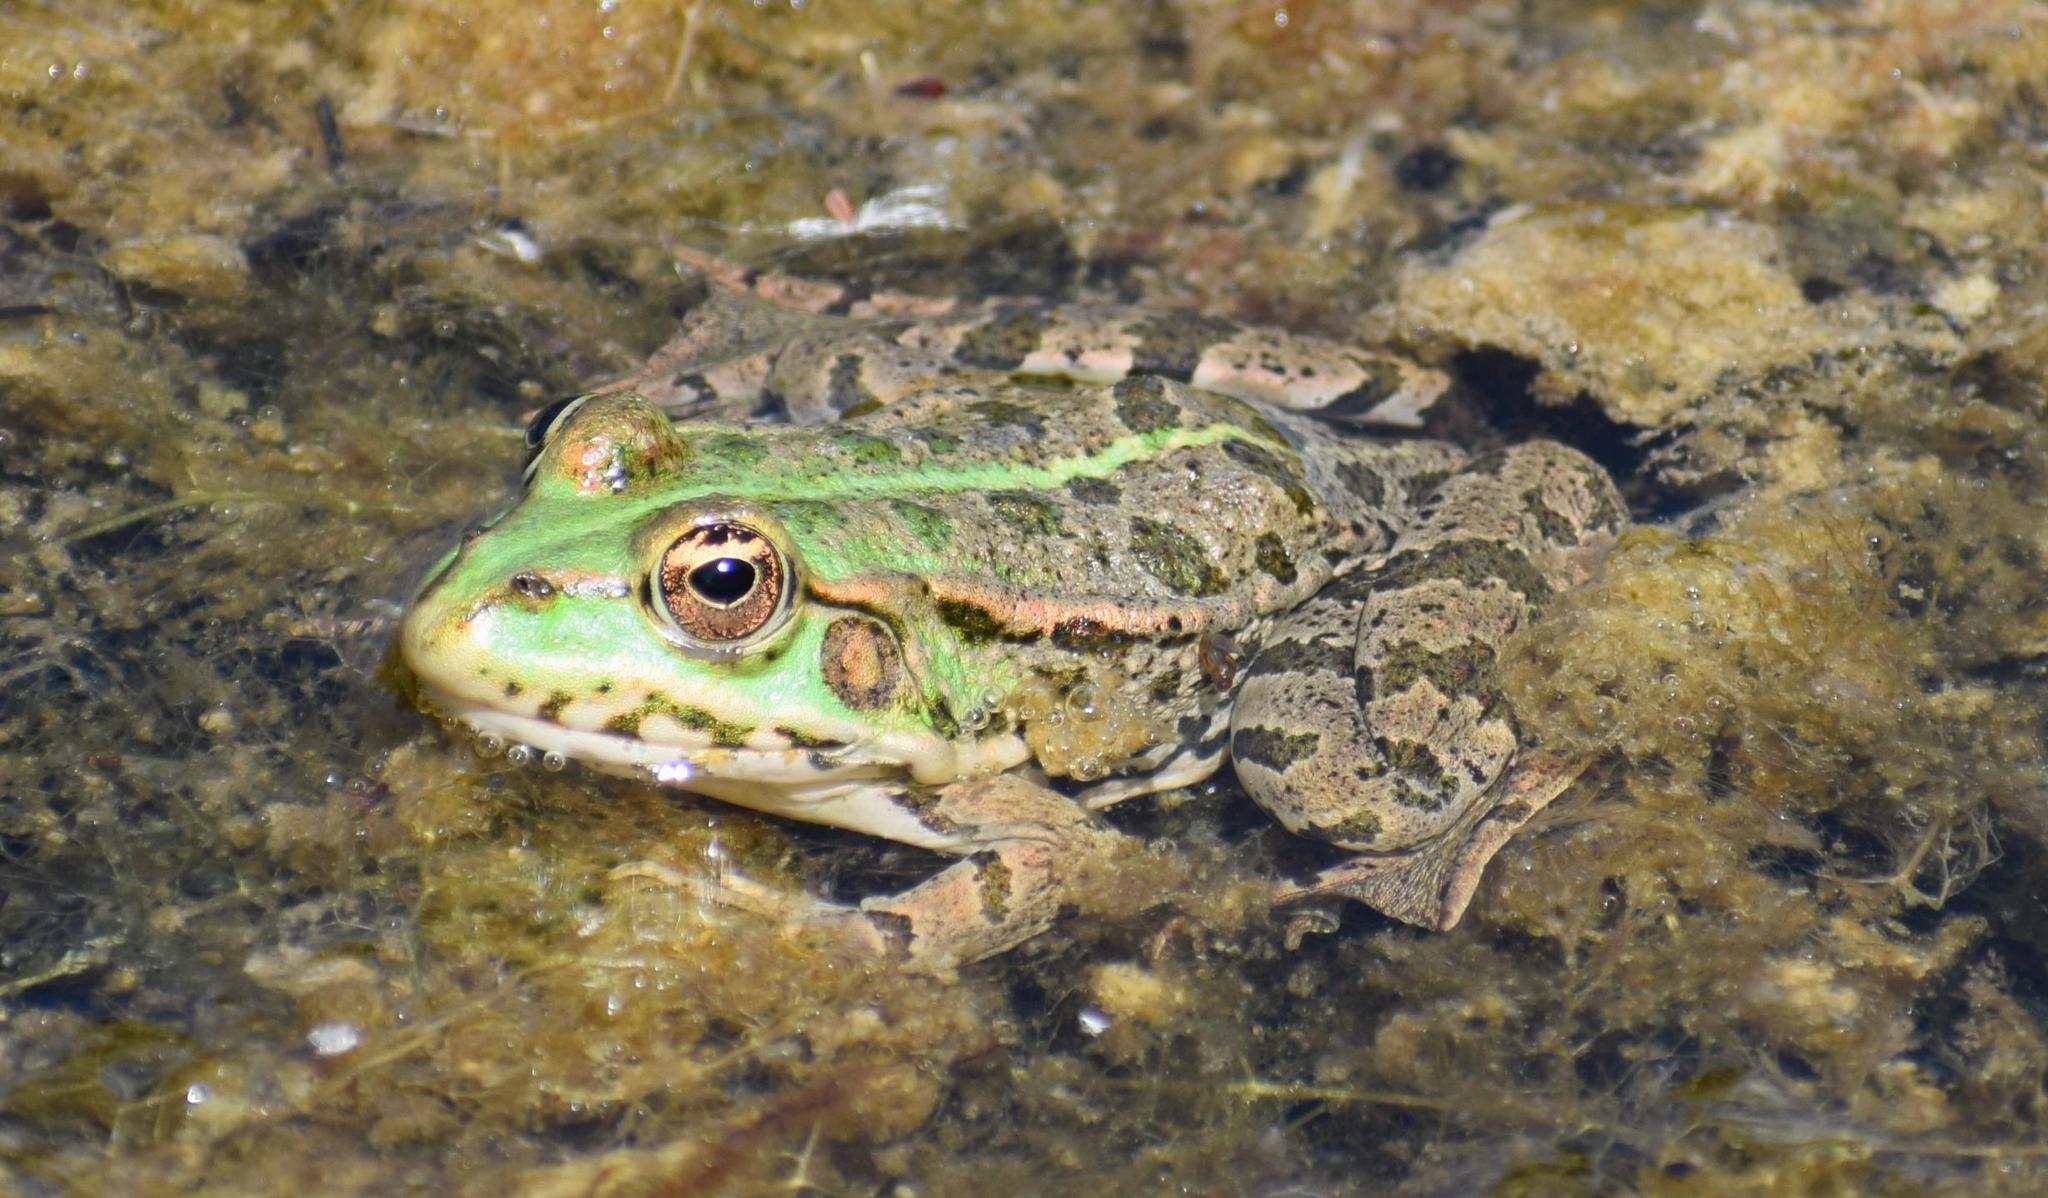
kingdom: Animalia
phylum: Chordata
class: Amphibia
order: Anura
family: Ranidae
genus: Pelophylax
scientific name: Pelophylax
